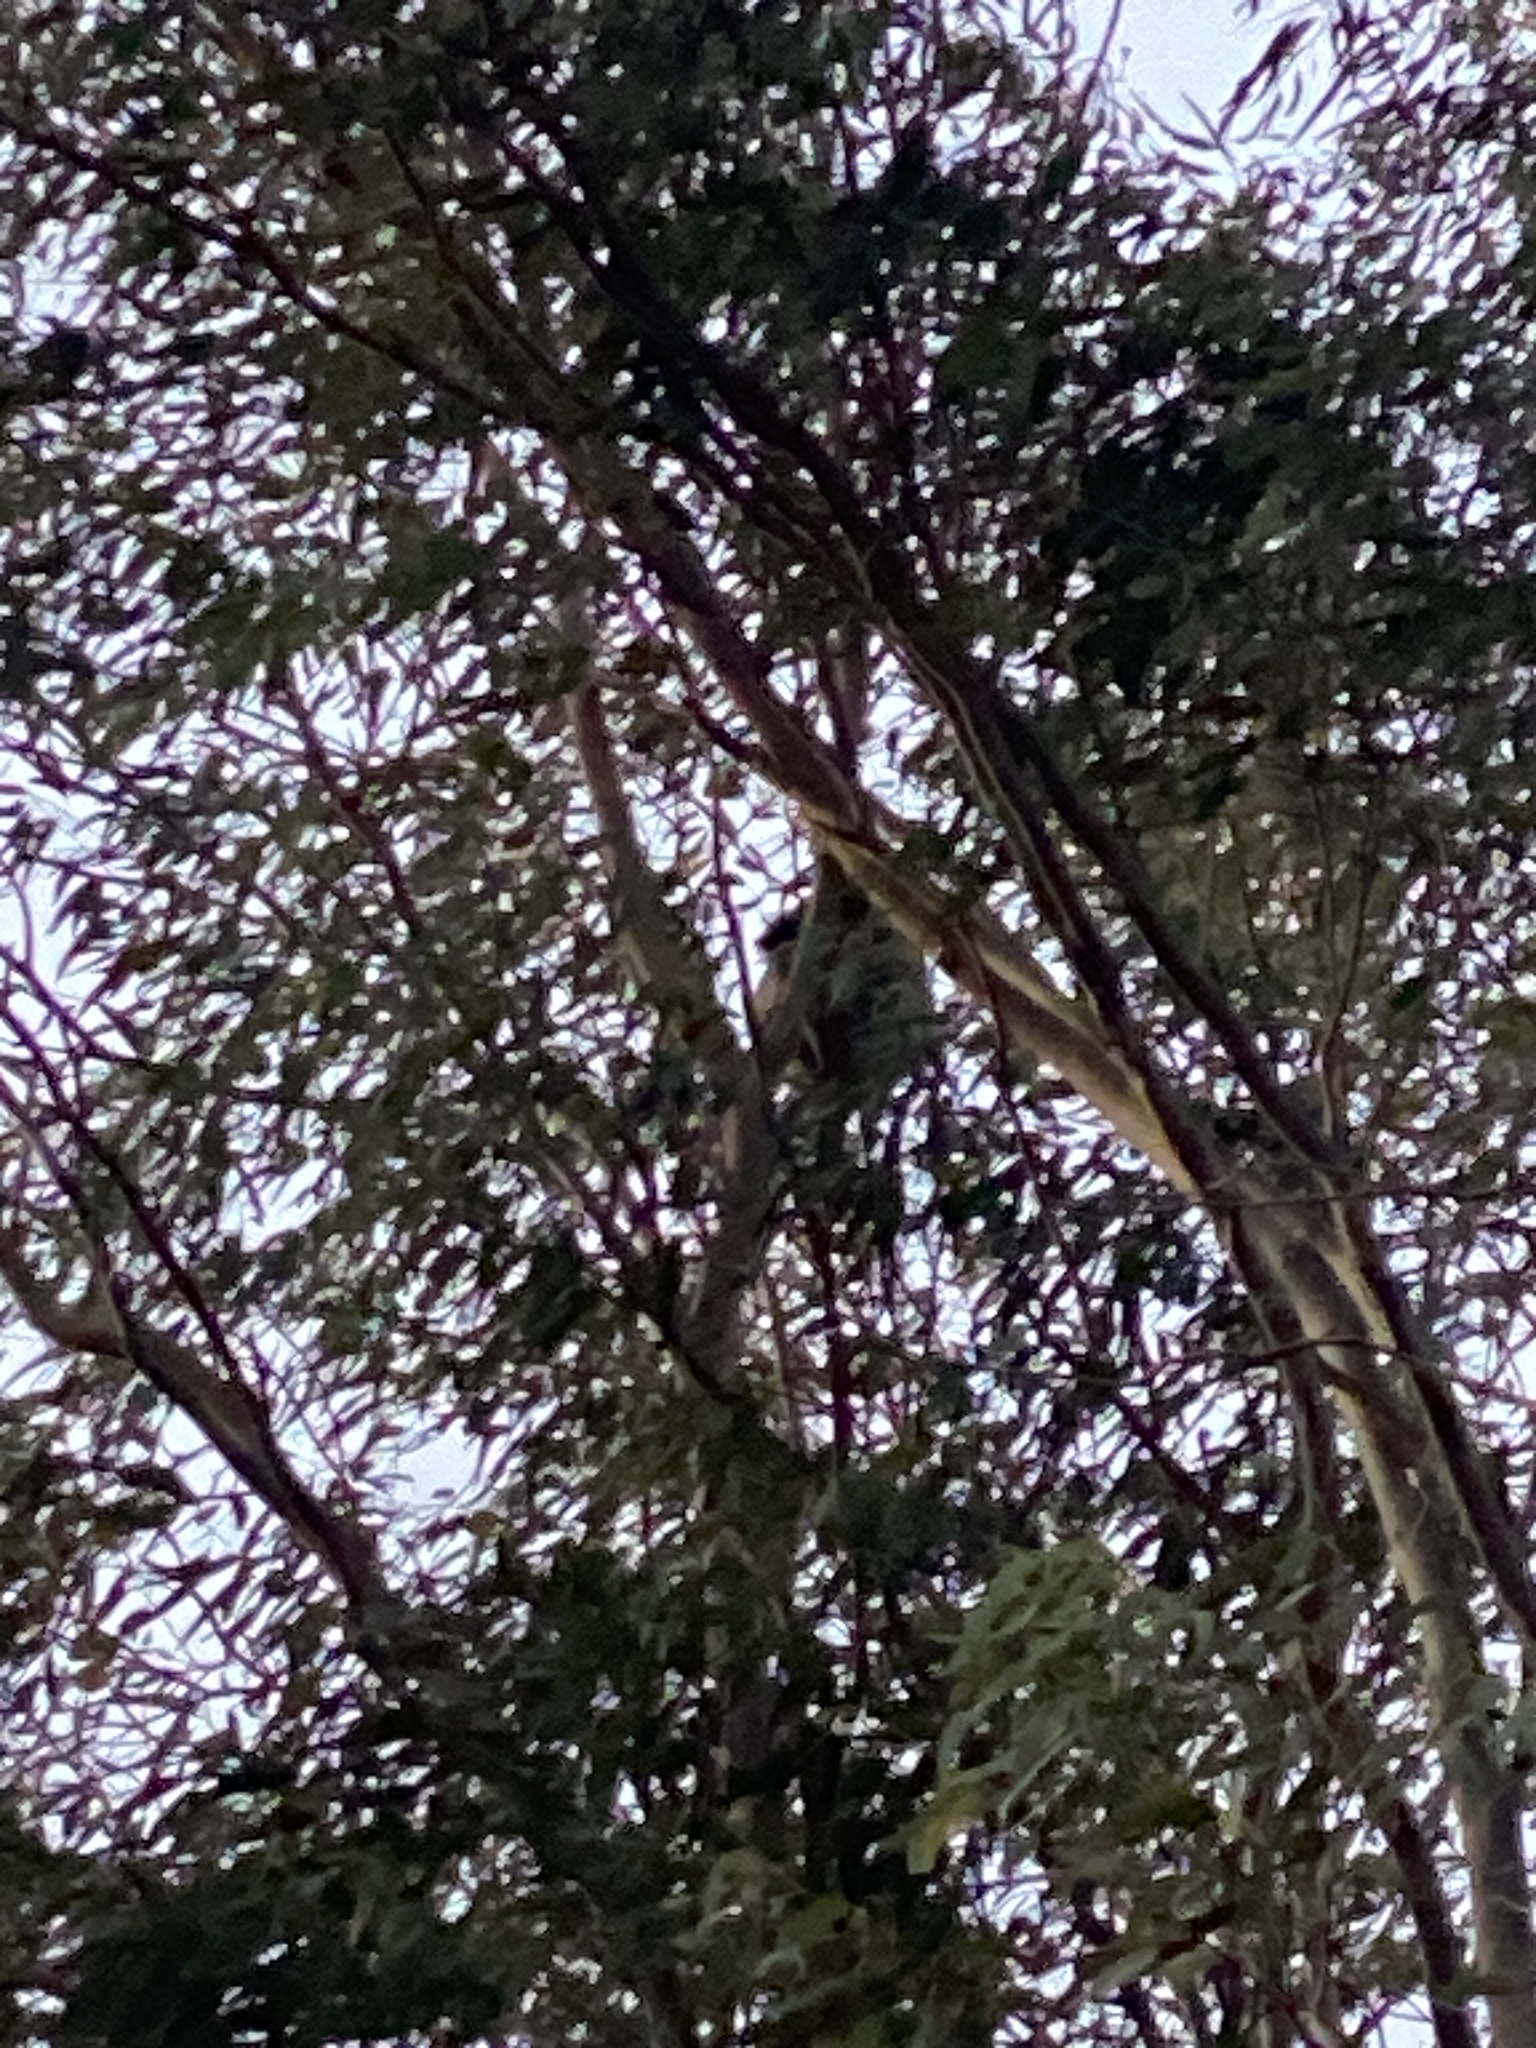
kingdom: Animalia
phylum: Chordata
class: Mammalia
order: Diprotodontia
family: Phascolarctidae
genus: Phascolarctos
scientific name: Phascolarctos cinereus
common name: Koala
